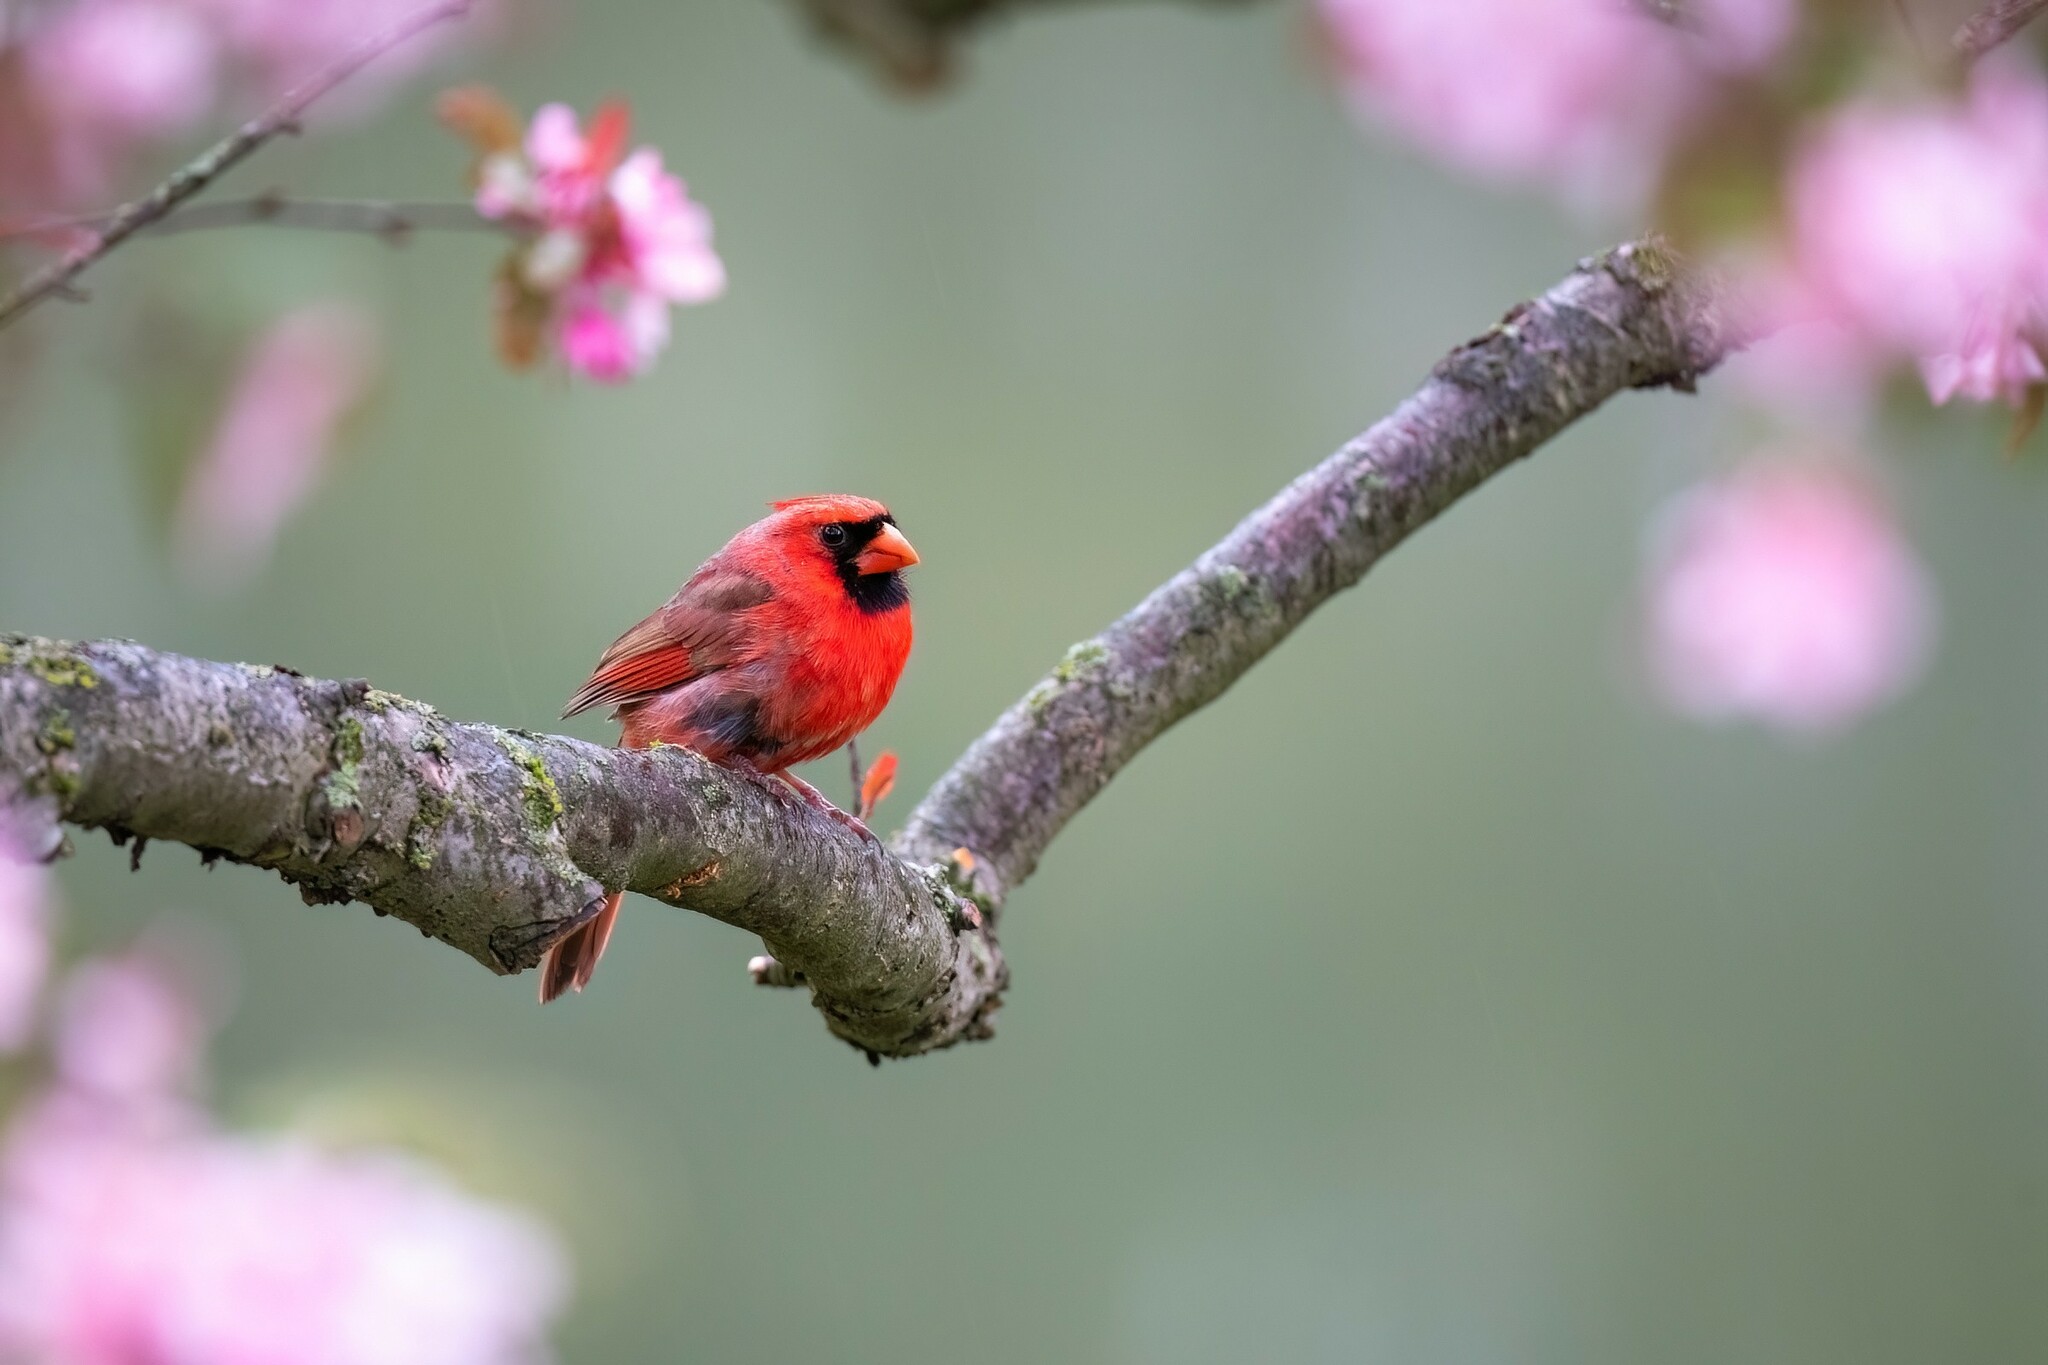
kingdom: Animalia
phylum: Chordata
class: Aves
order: Passeriformes
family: Cardinalidae
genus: Cardinalis
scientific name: Cardinalis cardinalis
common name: Northern cardinal
